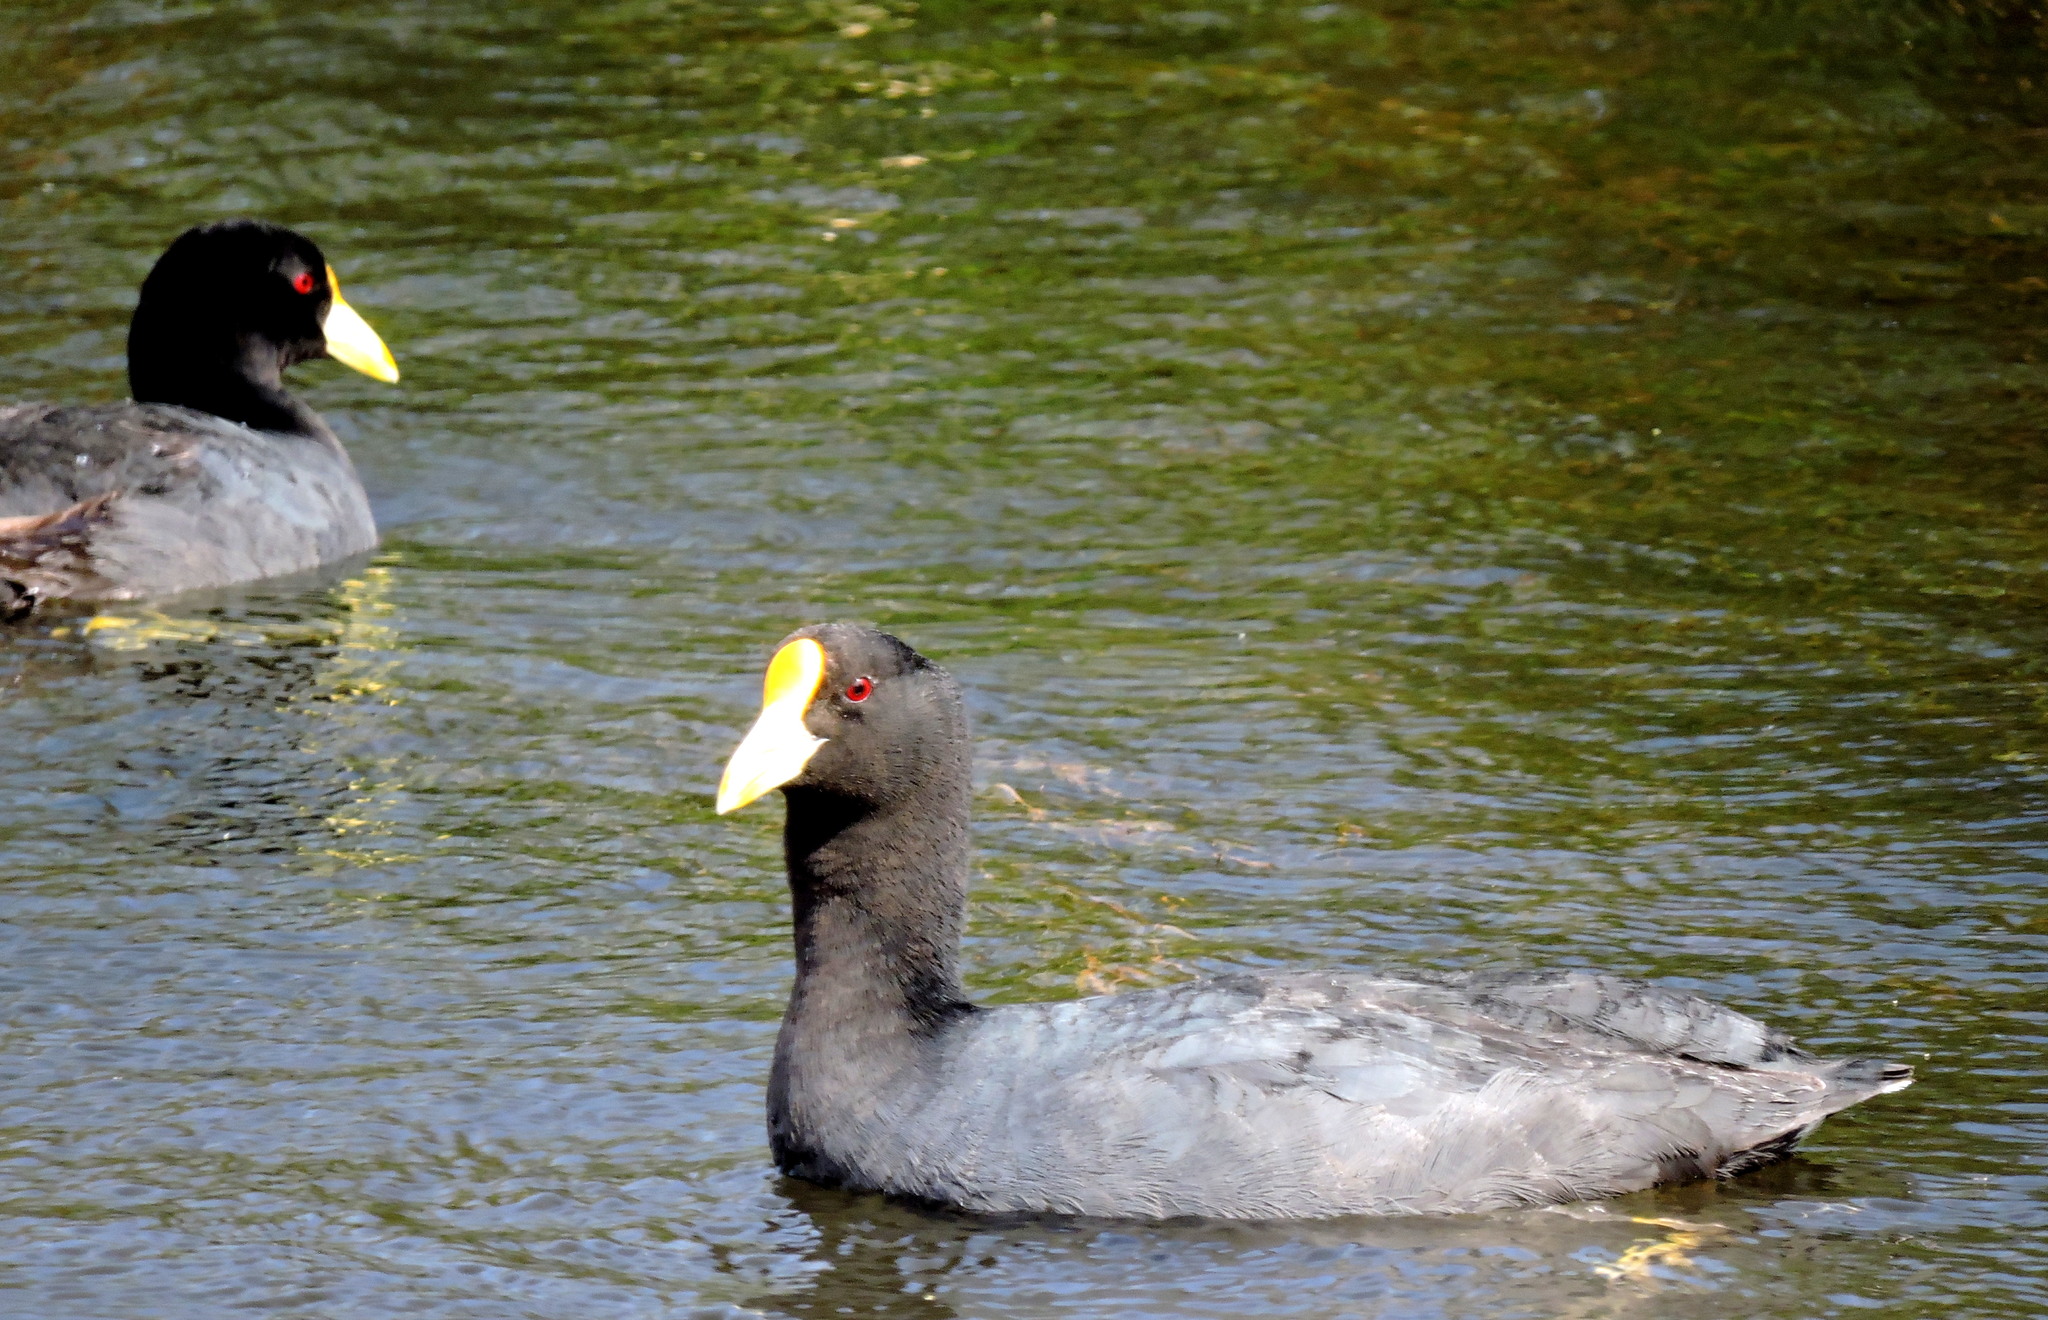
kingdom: Animalia
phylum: Chordata
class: Aves
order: Gruiformes
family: Rallidae
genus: Fulica
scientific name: Fulica leucoptera
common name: White-winged coot
